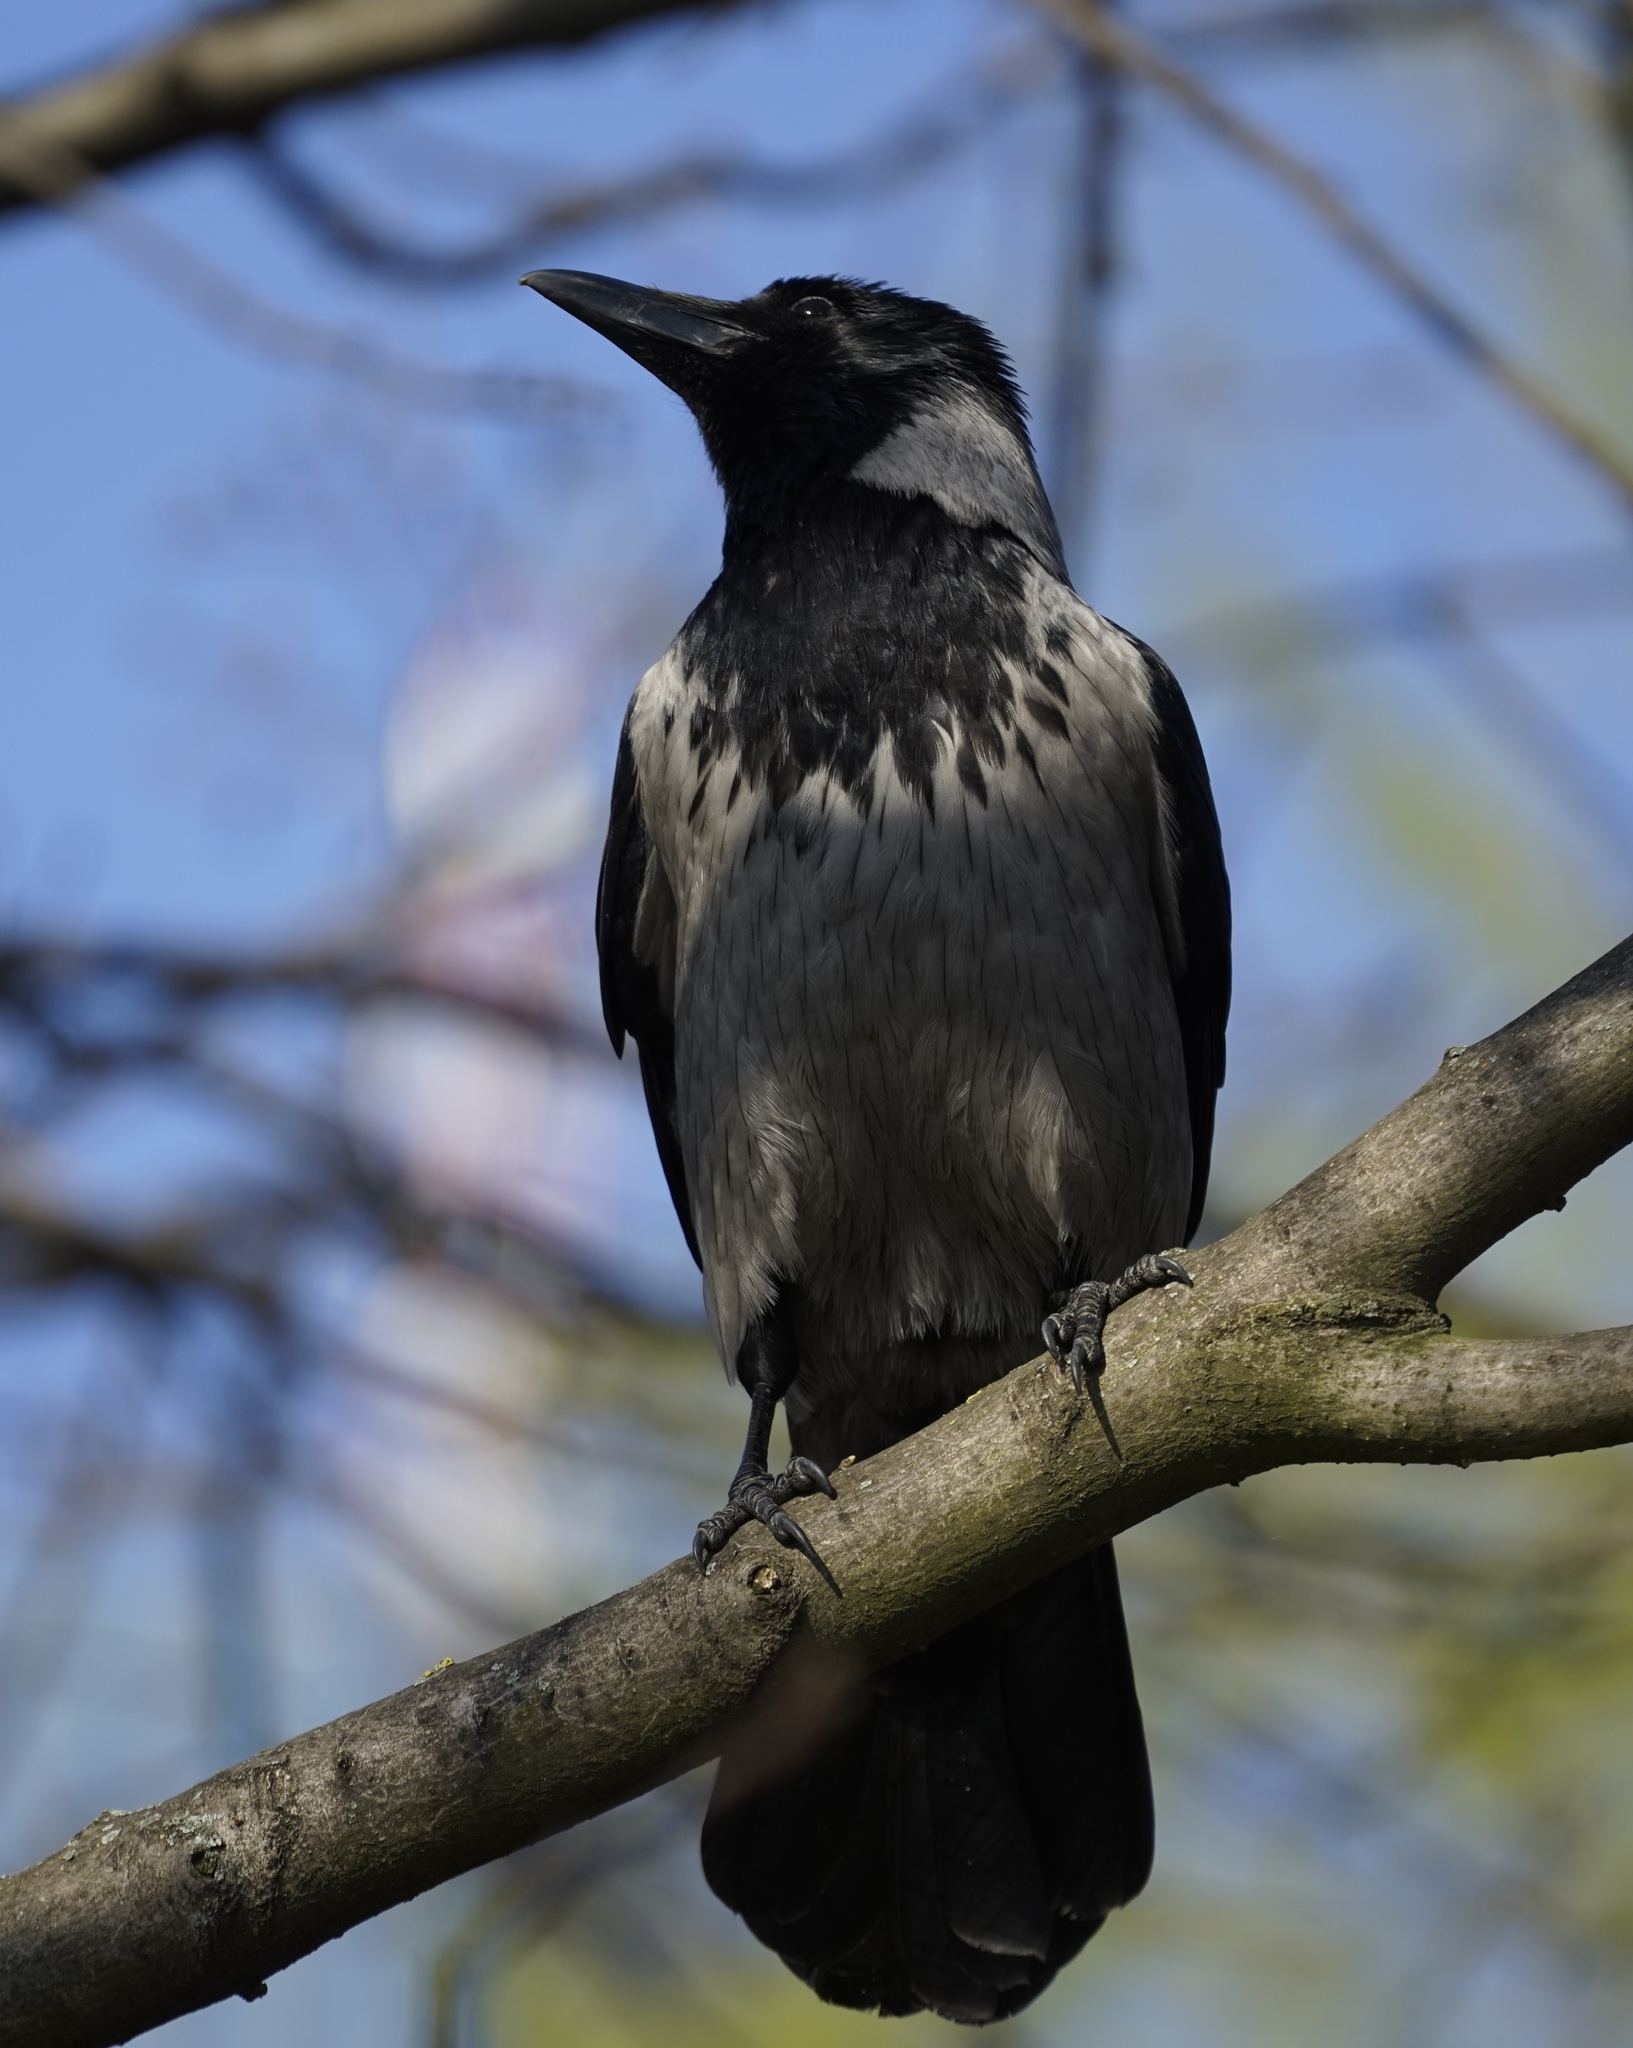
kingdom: Animalia
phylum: Chordata
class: Aves
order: Passeriformes
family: Corvidae
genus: Corvus
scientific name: Corvus cornix
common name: Hooded crow
